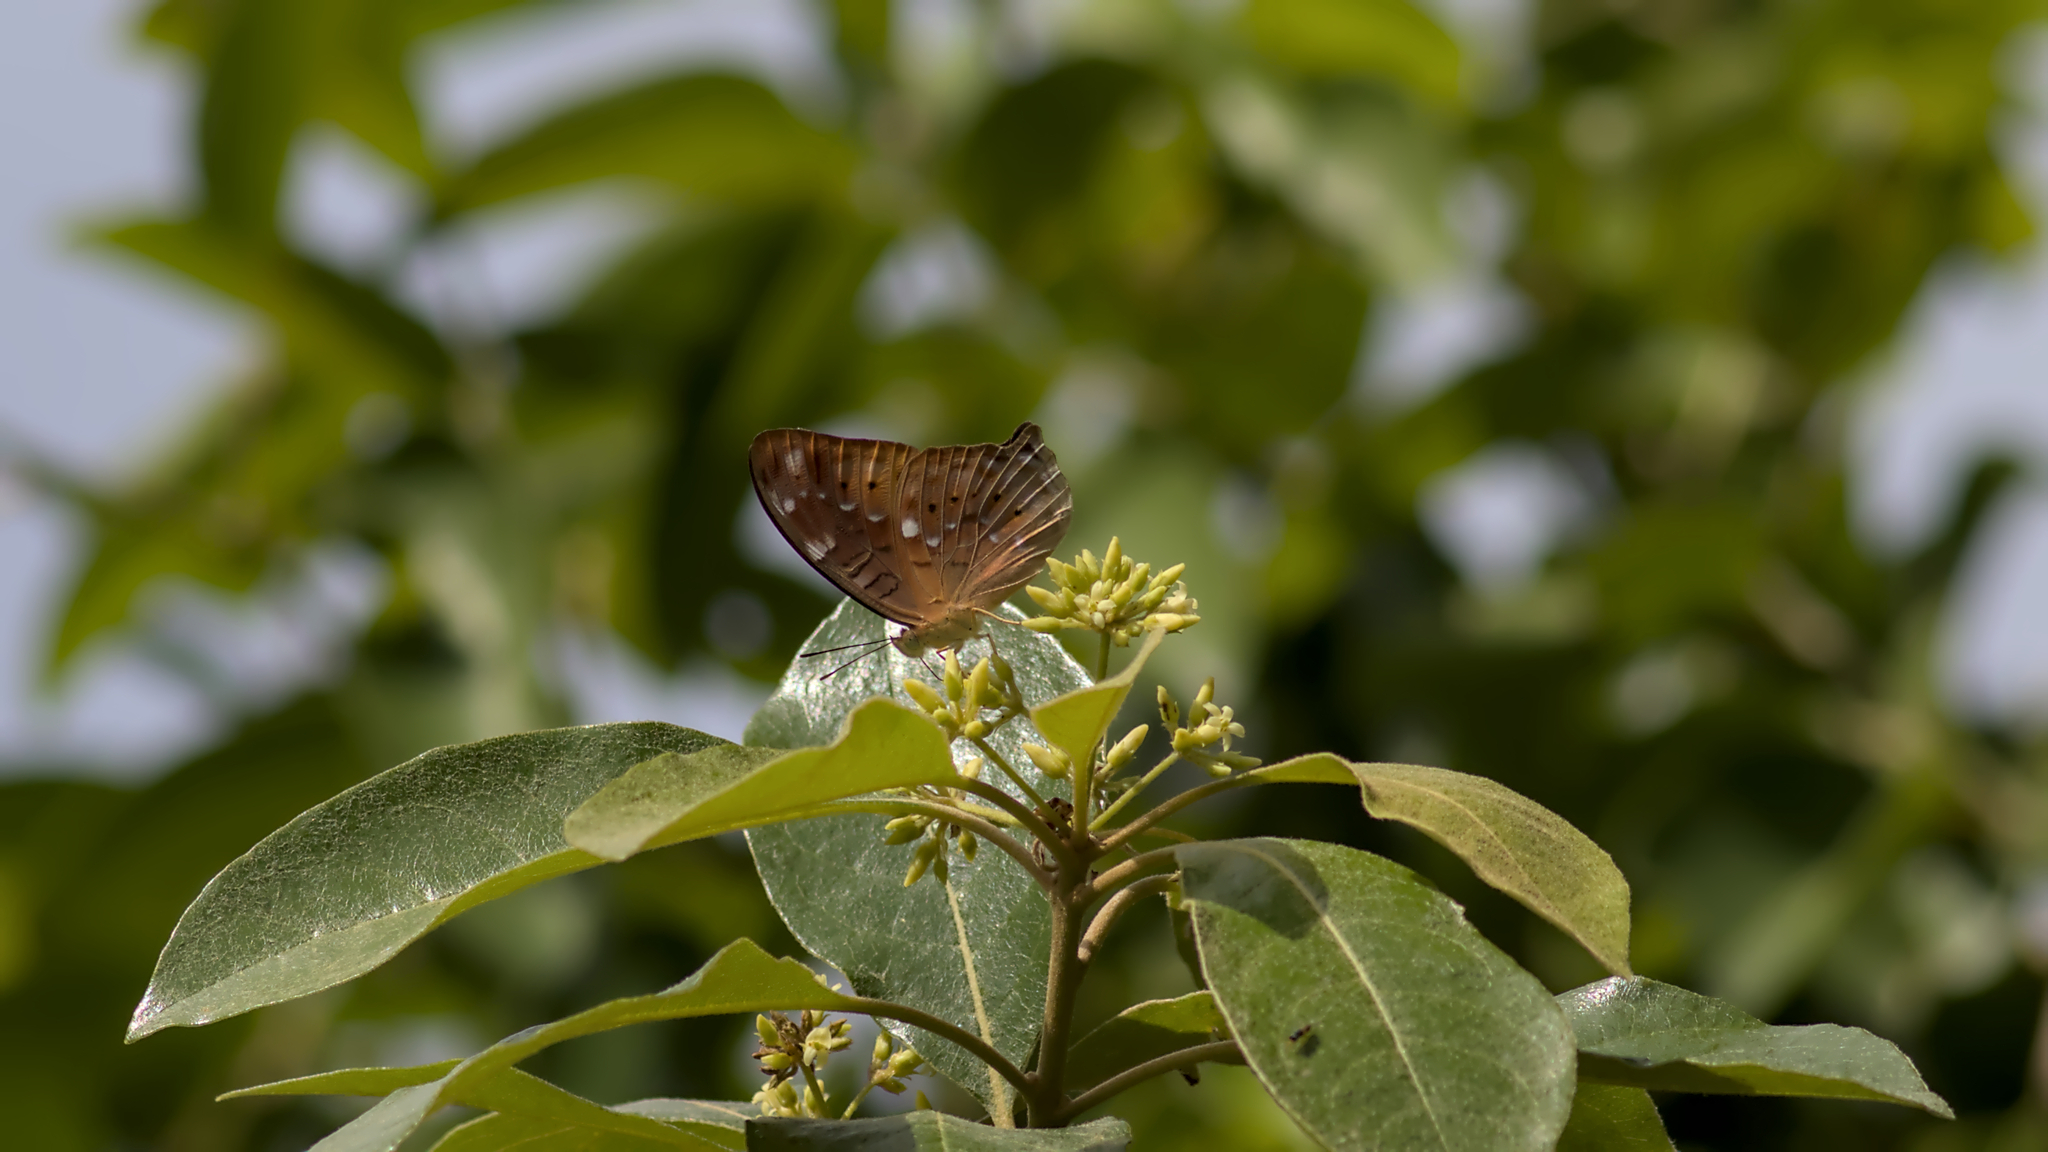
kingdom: Animalia
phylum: Arthropoda
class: Insecta
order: Lepidoptera
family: Nymphalidae
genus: Vagrans
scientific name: Vagrans egista
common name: Tailed rustic
